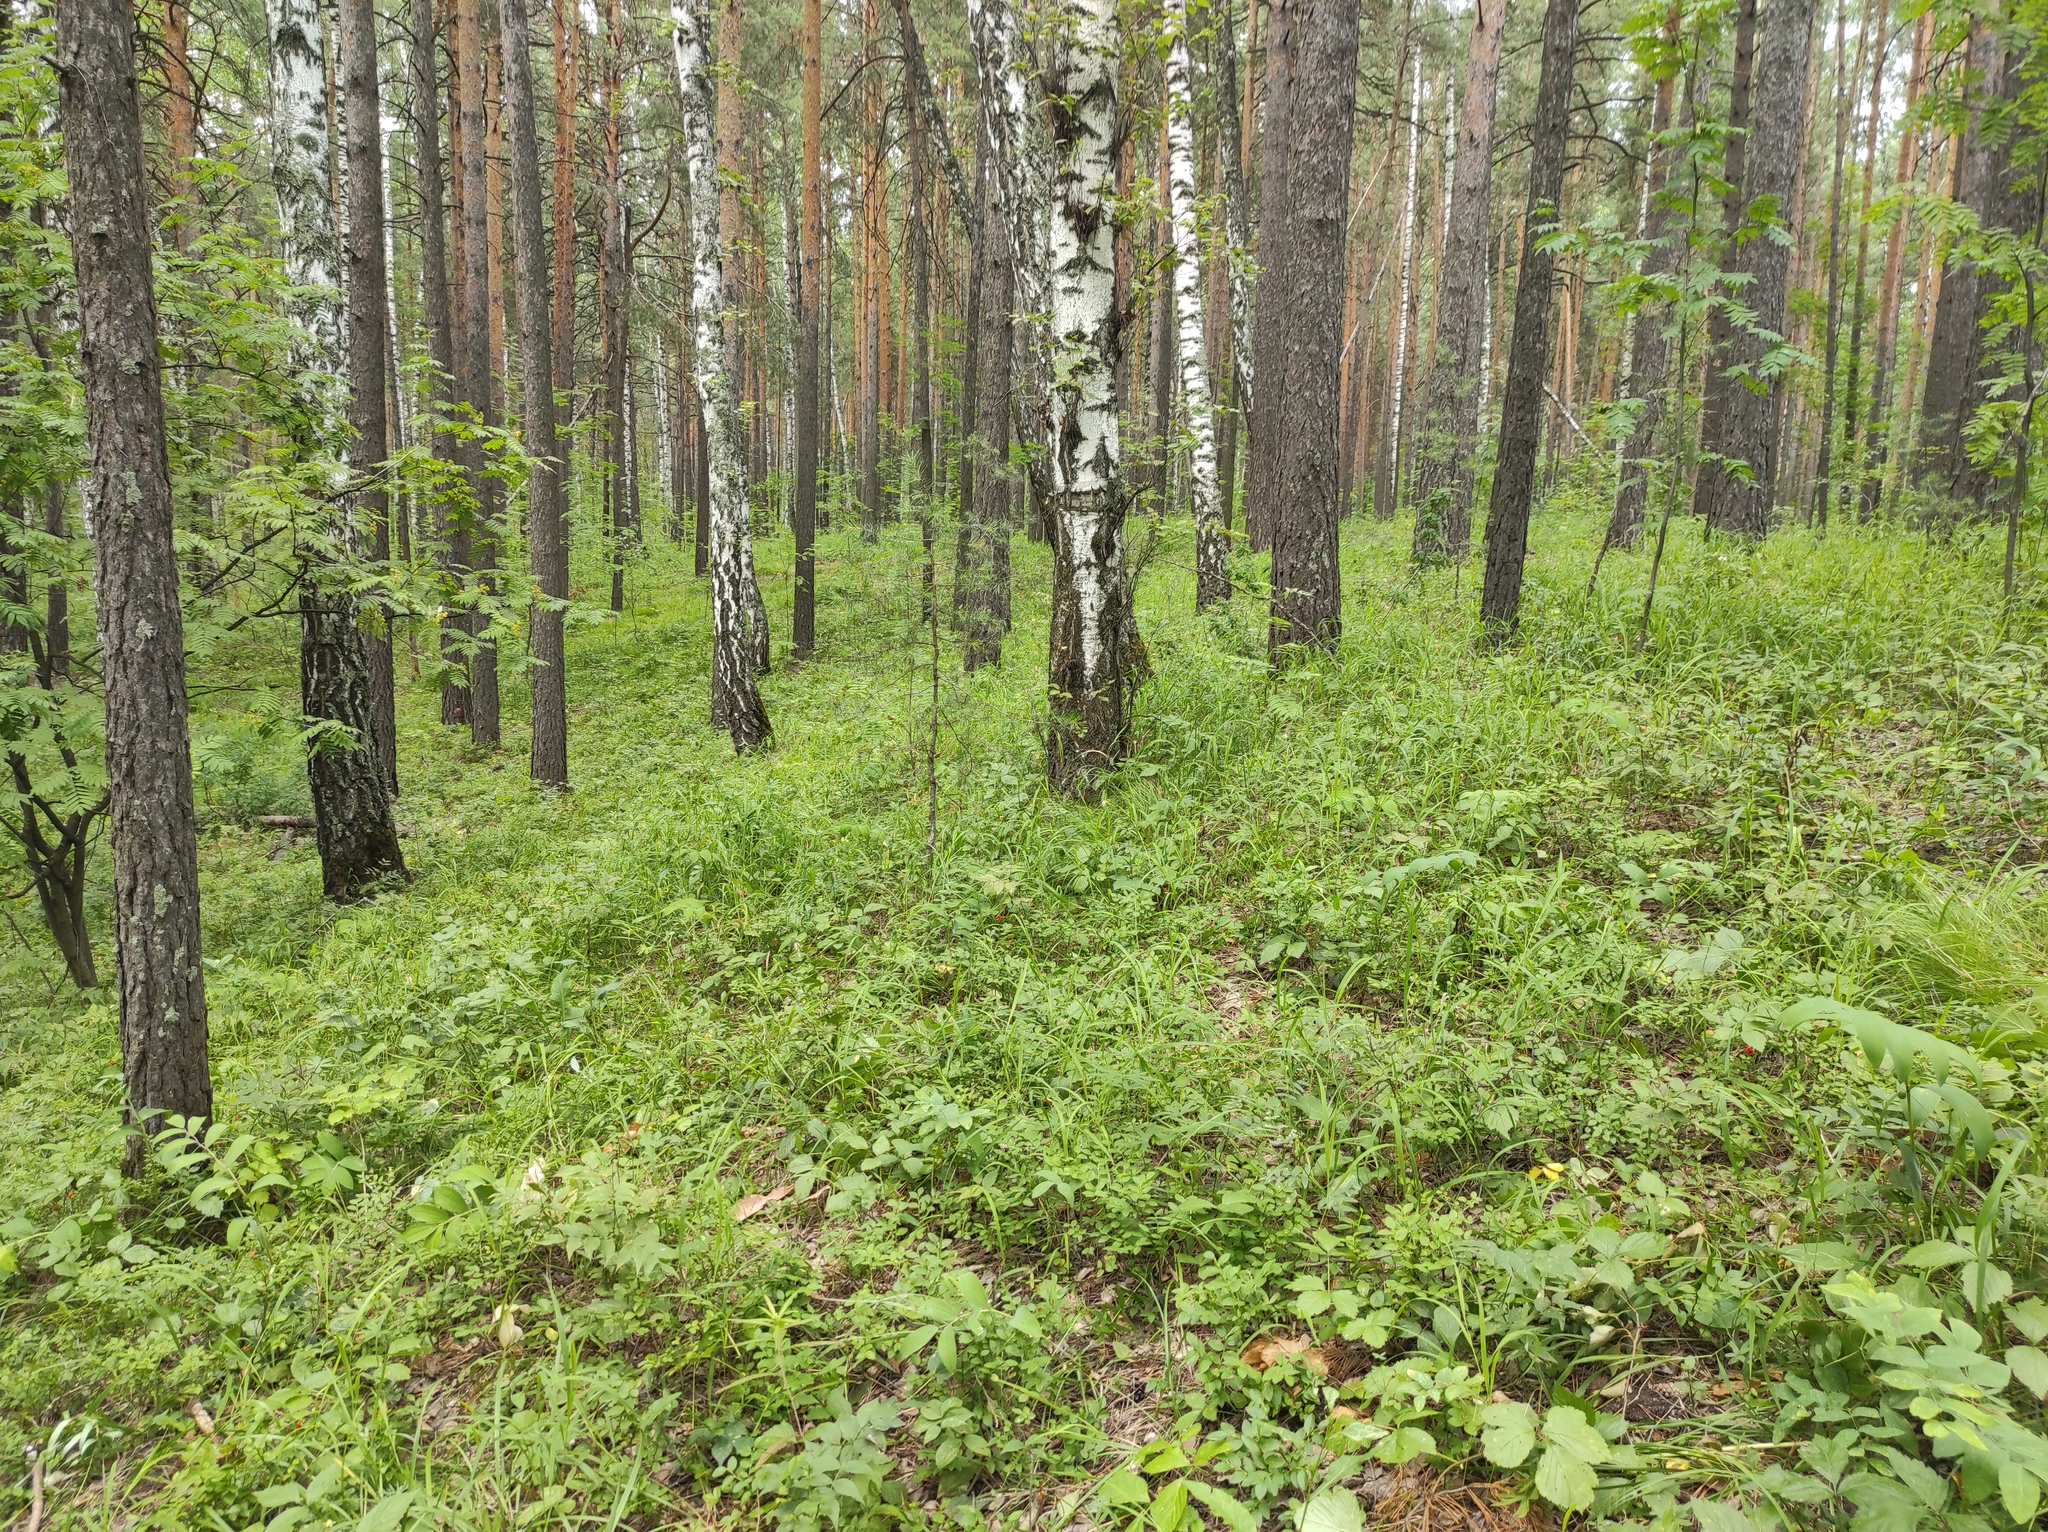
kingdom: Plantae
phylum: Tracheophyta
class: Magnoliopsida
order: Fagales
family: Betulaceae
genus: Betula
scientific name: Betula pendula
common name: Silver birch
